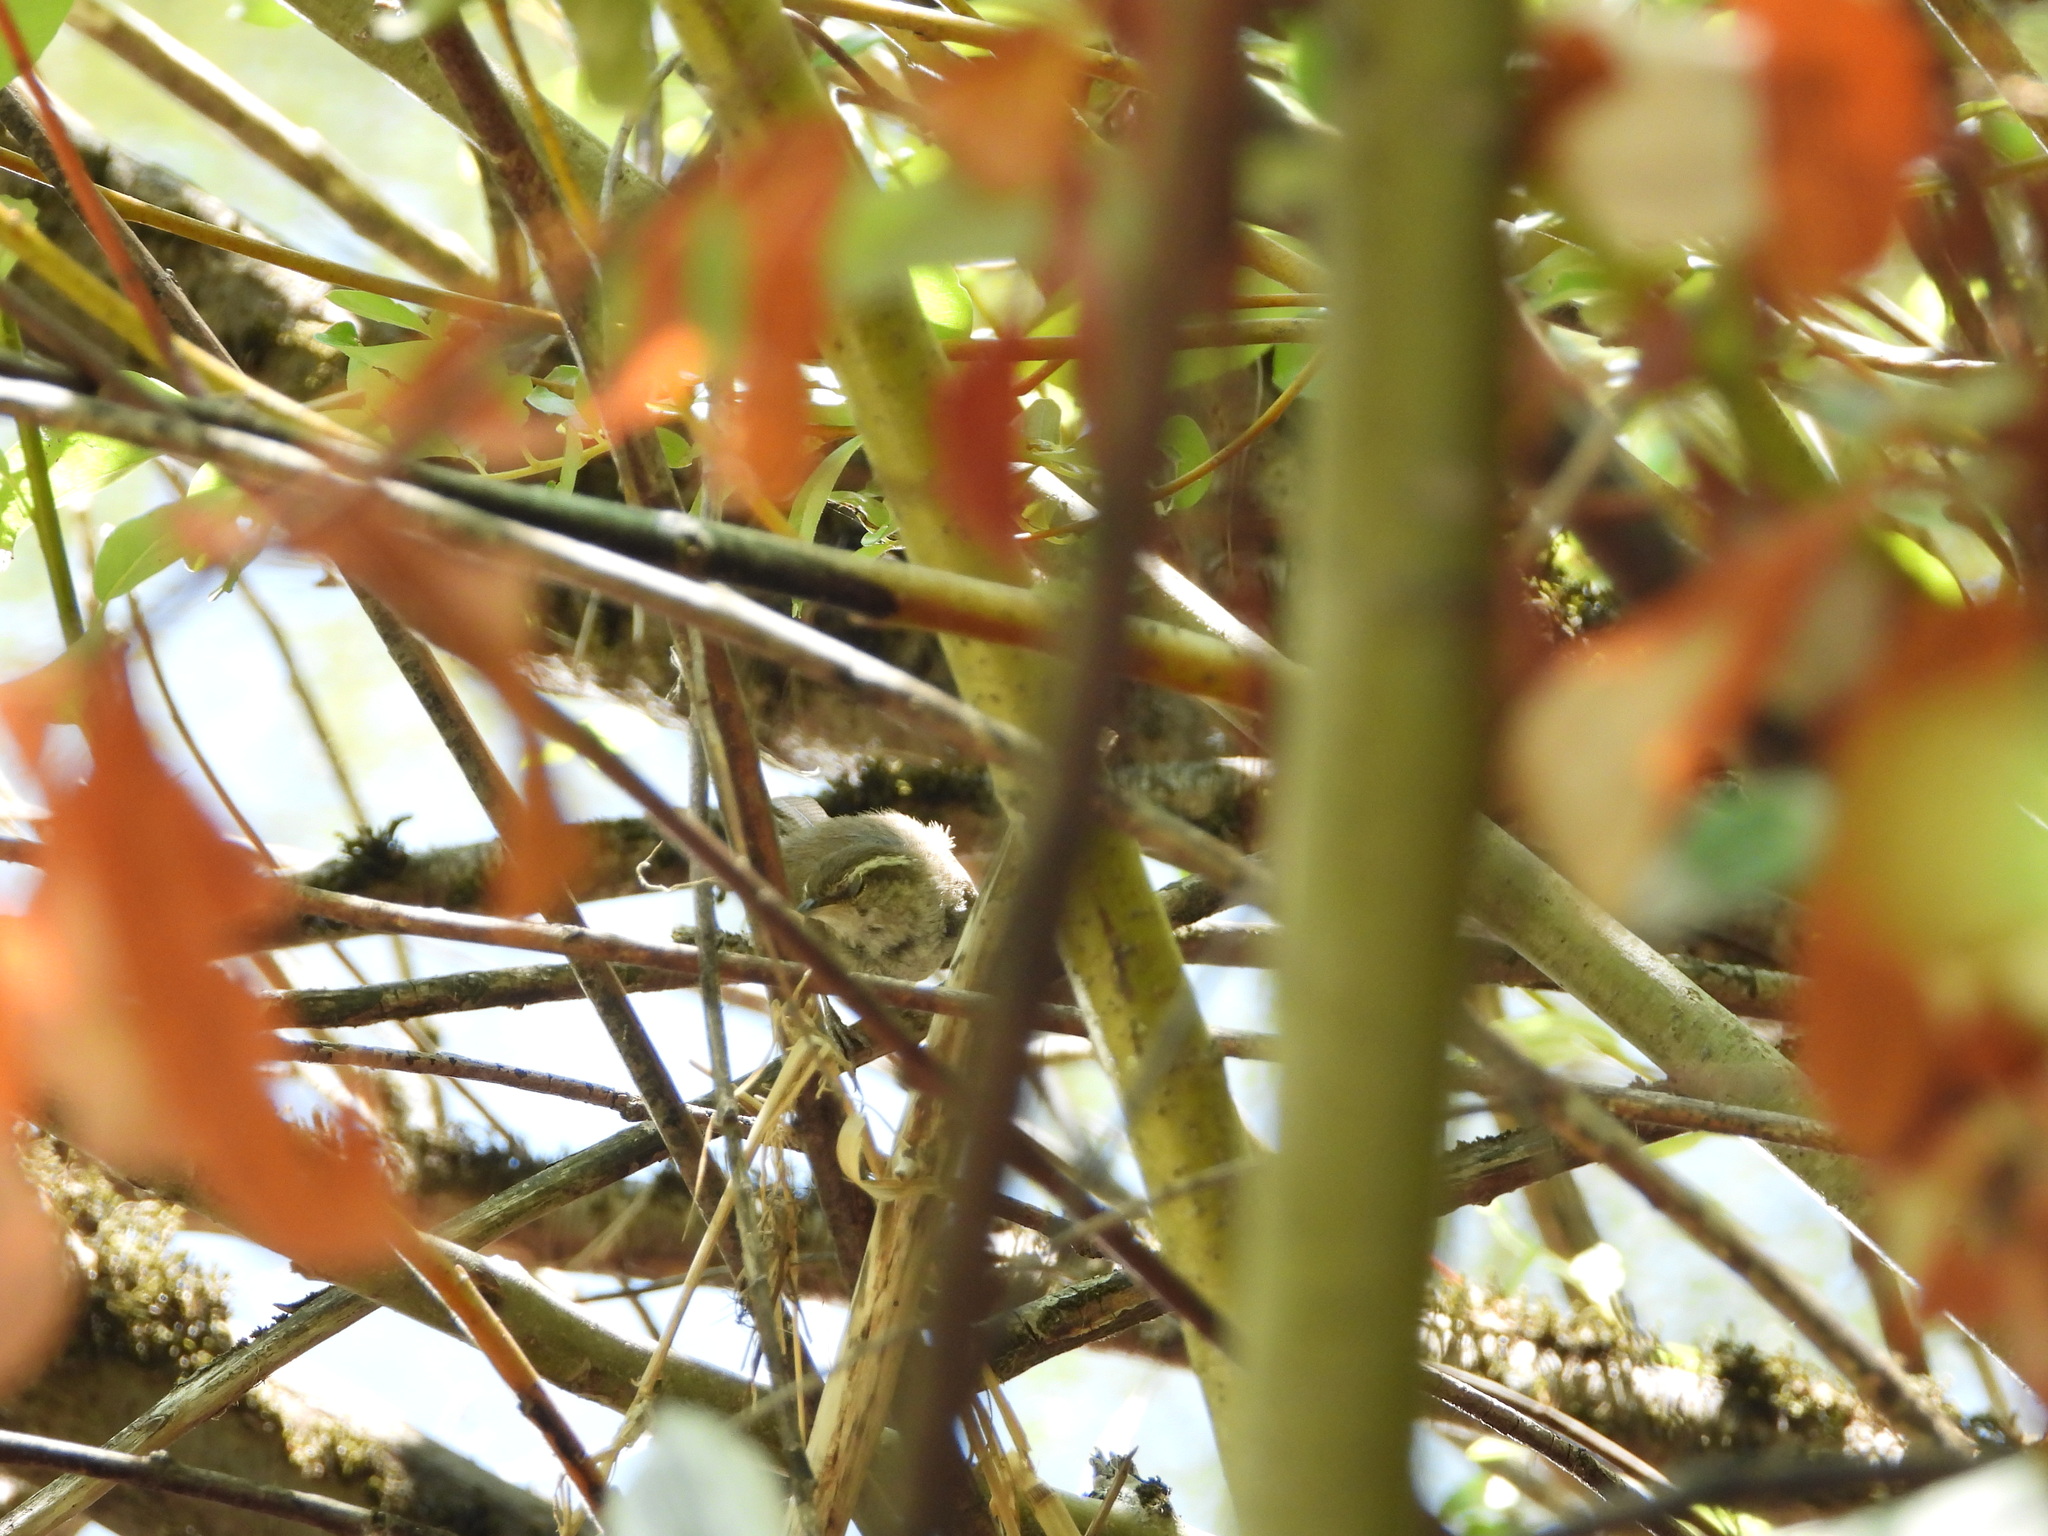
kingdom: Animalia
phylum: Chordata
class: Aves
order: Passeriformes
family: Troglodytidae
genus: Thryomanes
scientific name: Thryomanes bewickii
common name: Bewick's wren
